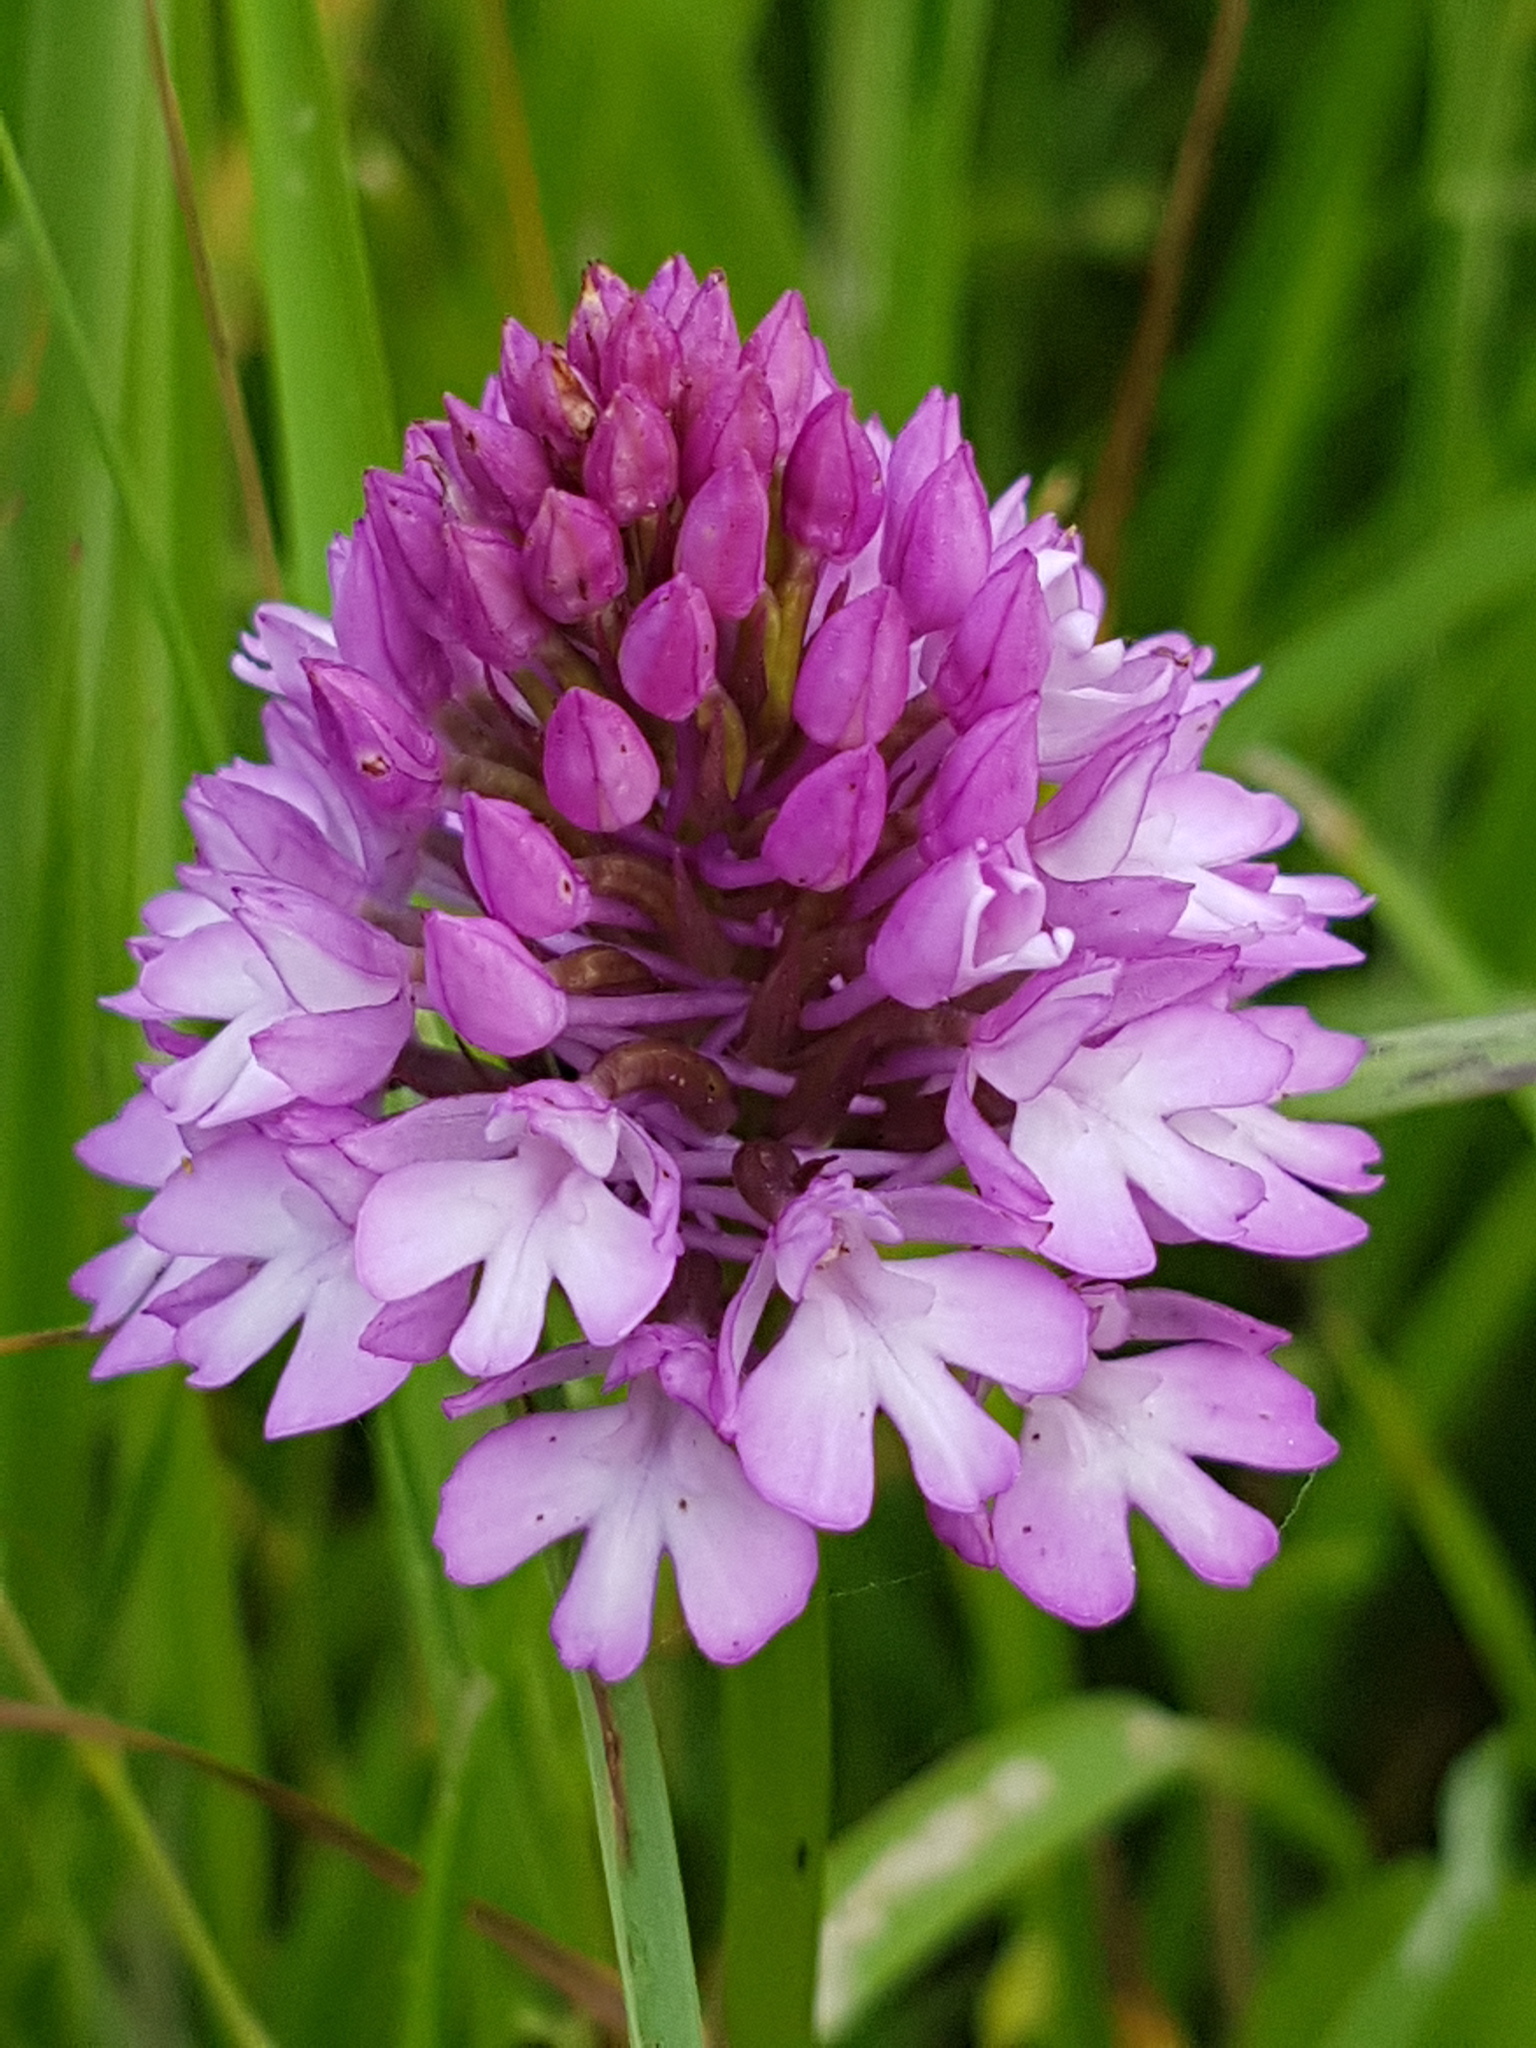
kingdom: Plantae
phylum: Tracheophyta
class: Liliopsida
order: Asparagales
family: Orchidaceae
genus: Anacamptis
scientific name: Anacamptis pyramidalis
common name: Pyramidal orchid
